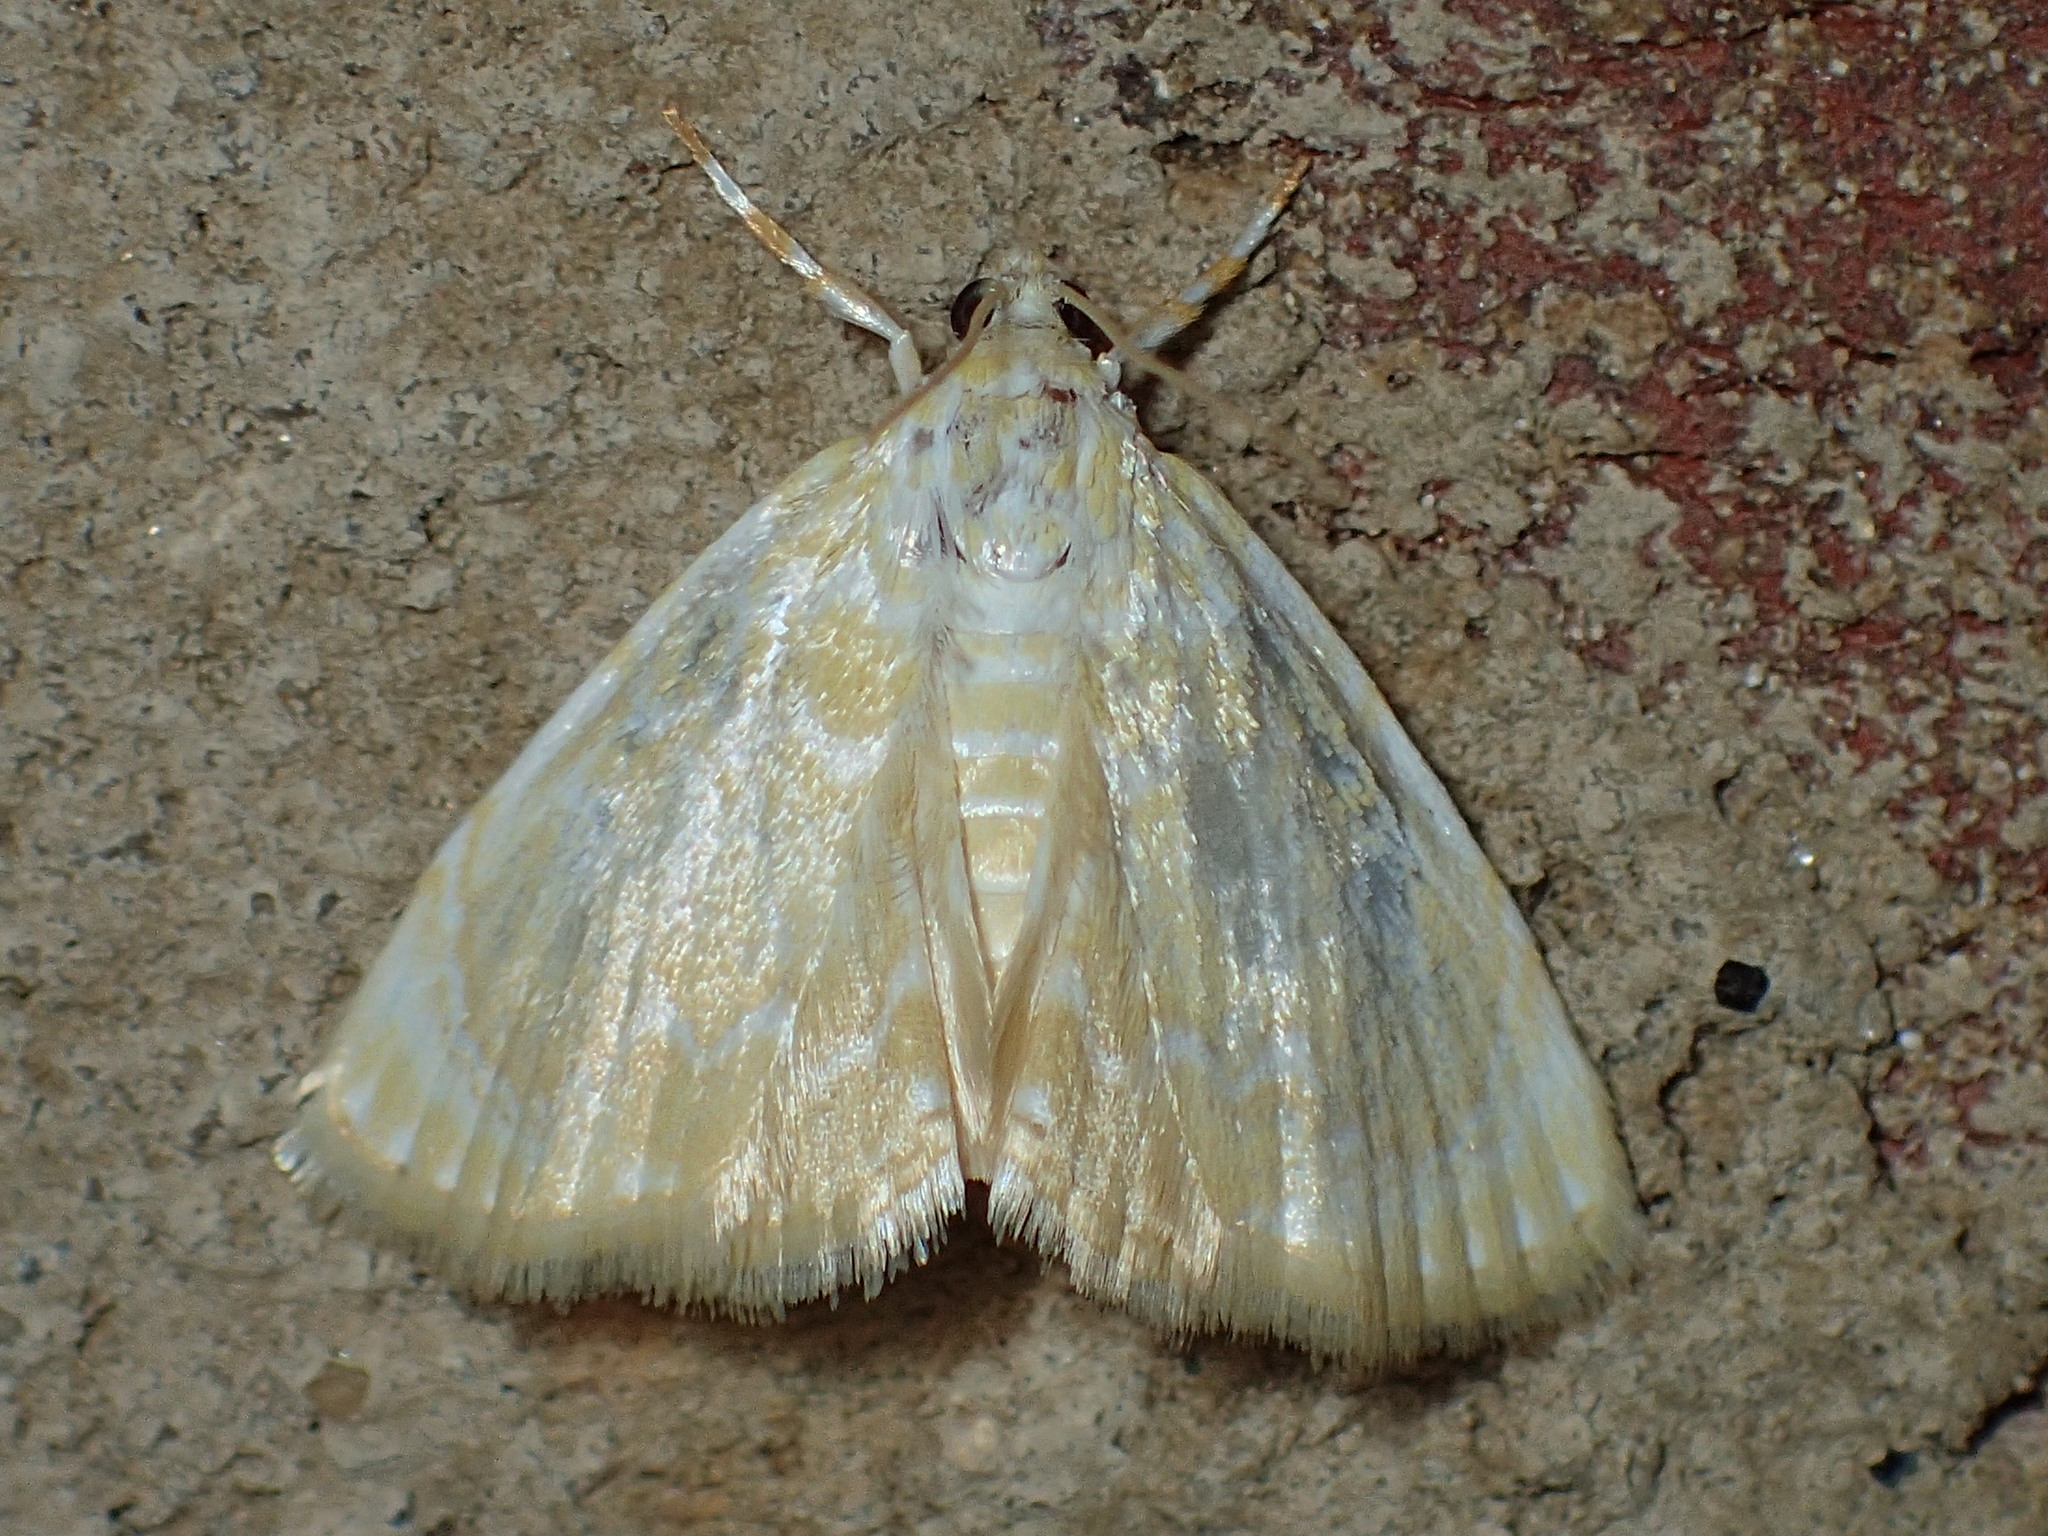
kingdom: Animalia
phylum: Arthropoda
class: Insecta
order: Lepidoptera
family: Crambidae
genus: Glaphyria
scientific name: Glaphyria glaphyralis
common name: Common glaphyria moth
